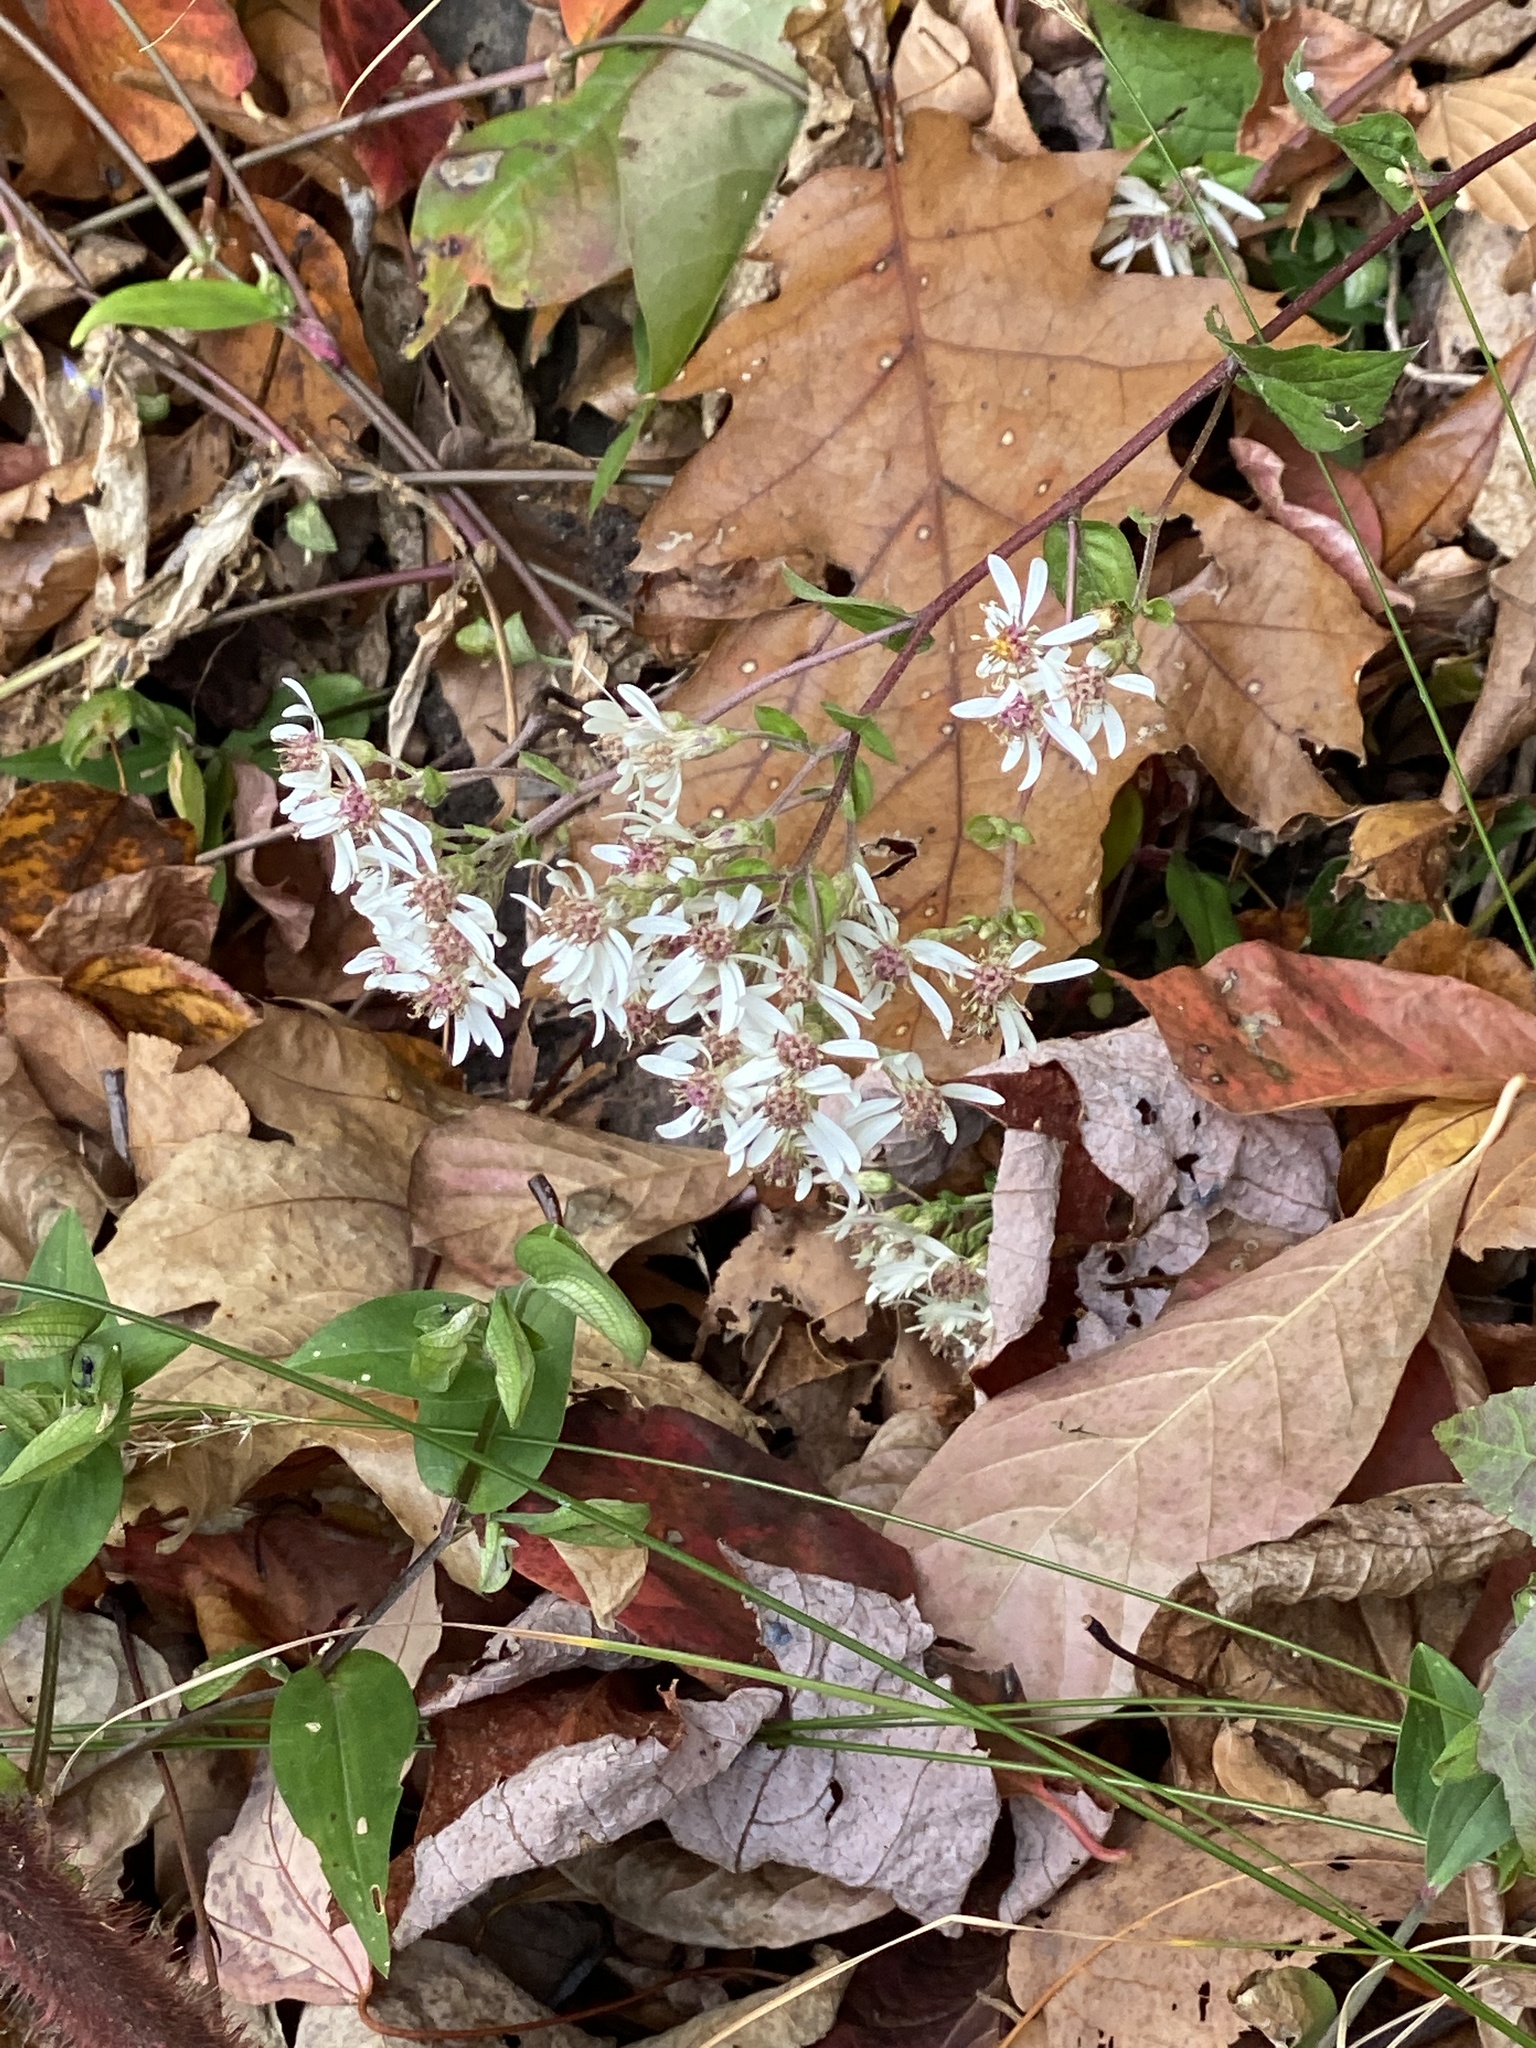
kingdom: Plantae
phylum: Tracheophyta
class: Magnoliopsida
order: Asterales
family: Asteraceae
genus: Eurybia
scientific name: Eurybia divaricata
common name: White wood aster
